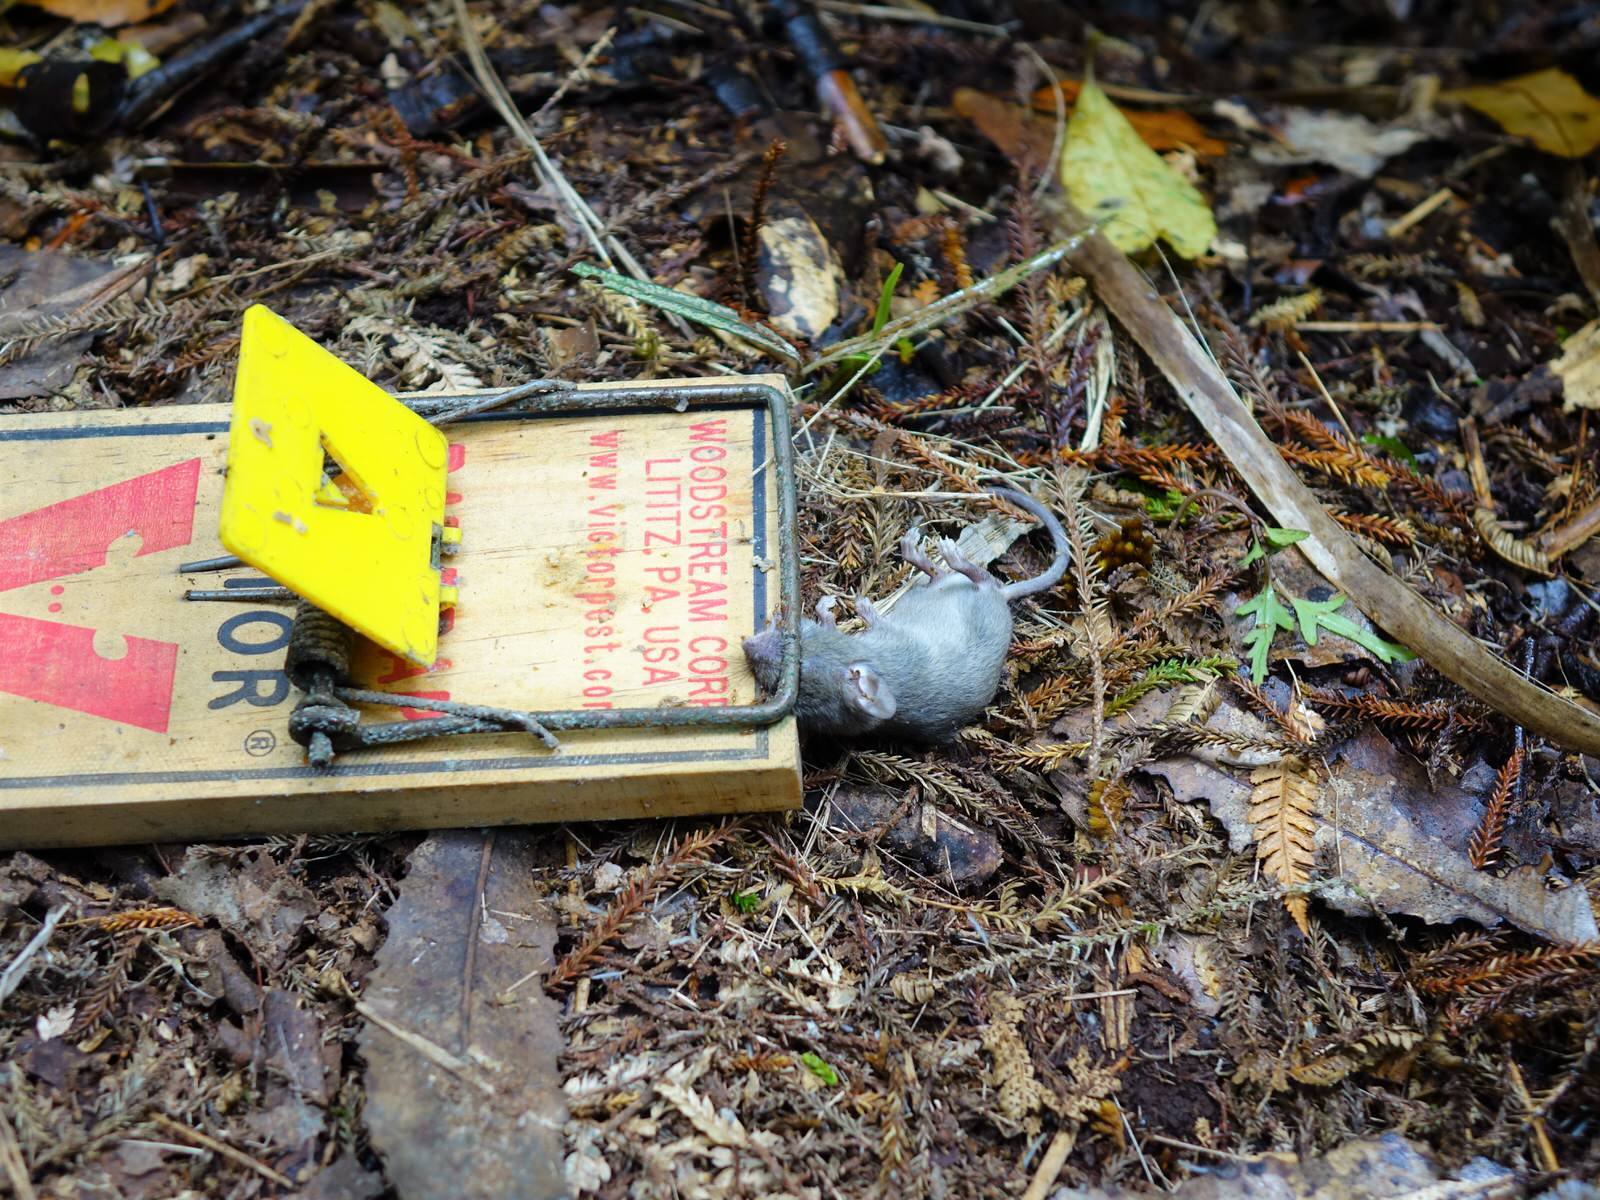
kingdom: Animalia
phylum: Chordata
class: Mammalia
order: Rodentia
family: Muridae
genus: Mus
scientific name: Mus musculus
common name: House mouse
